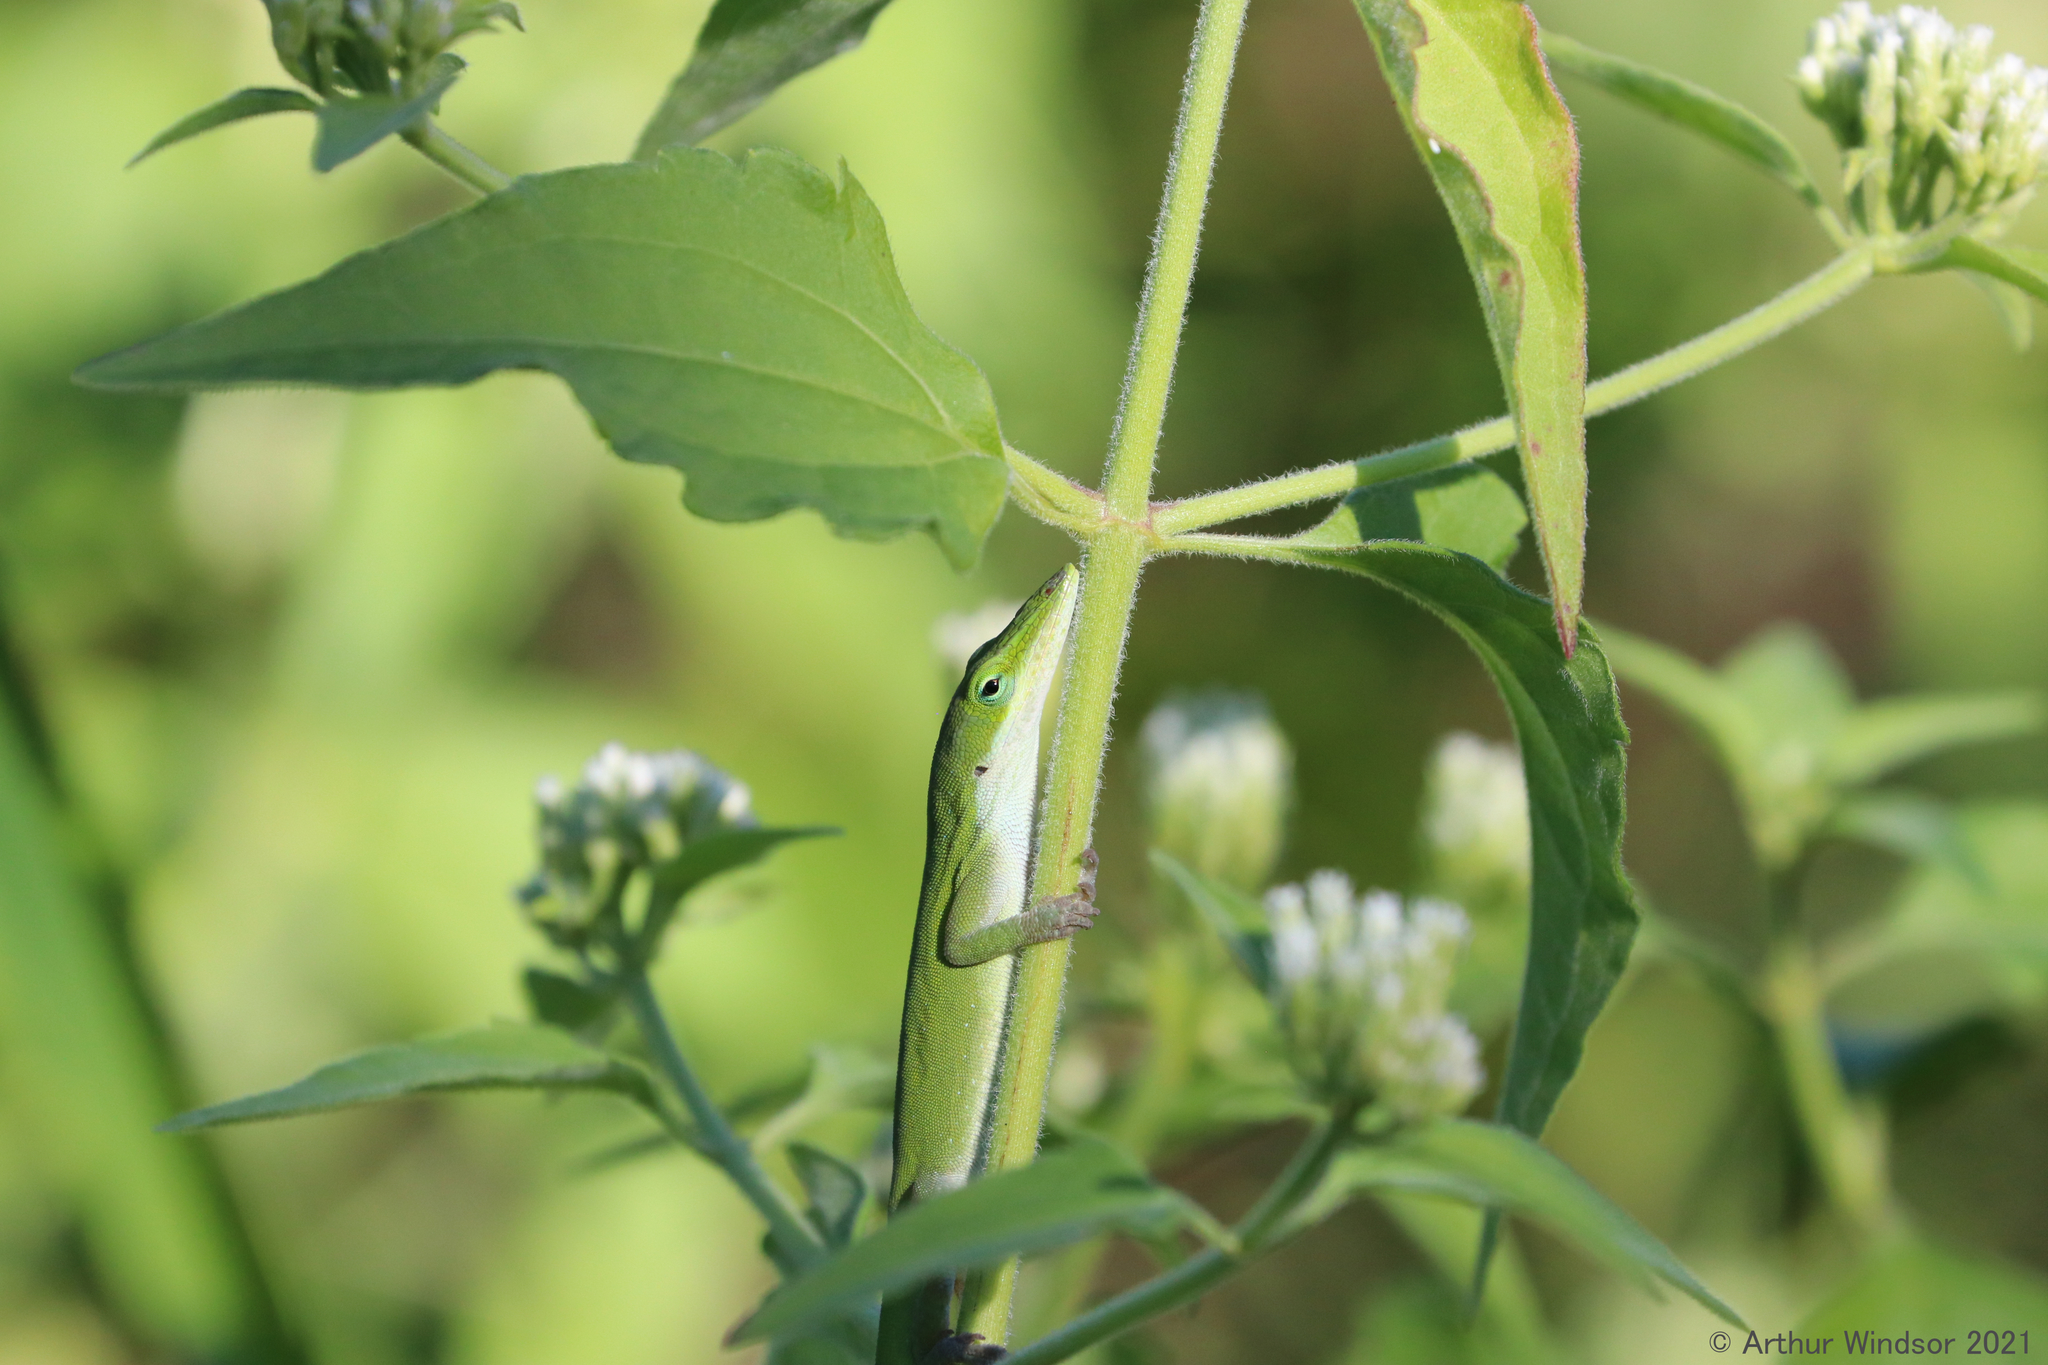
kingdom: Animalia
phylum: Chordata
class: Squamata
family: Dactyloidae
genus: Anolis
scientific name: Anolis carolinensis
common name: Green anole
